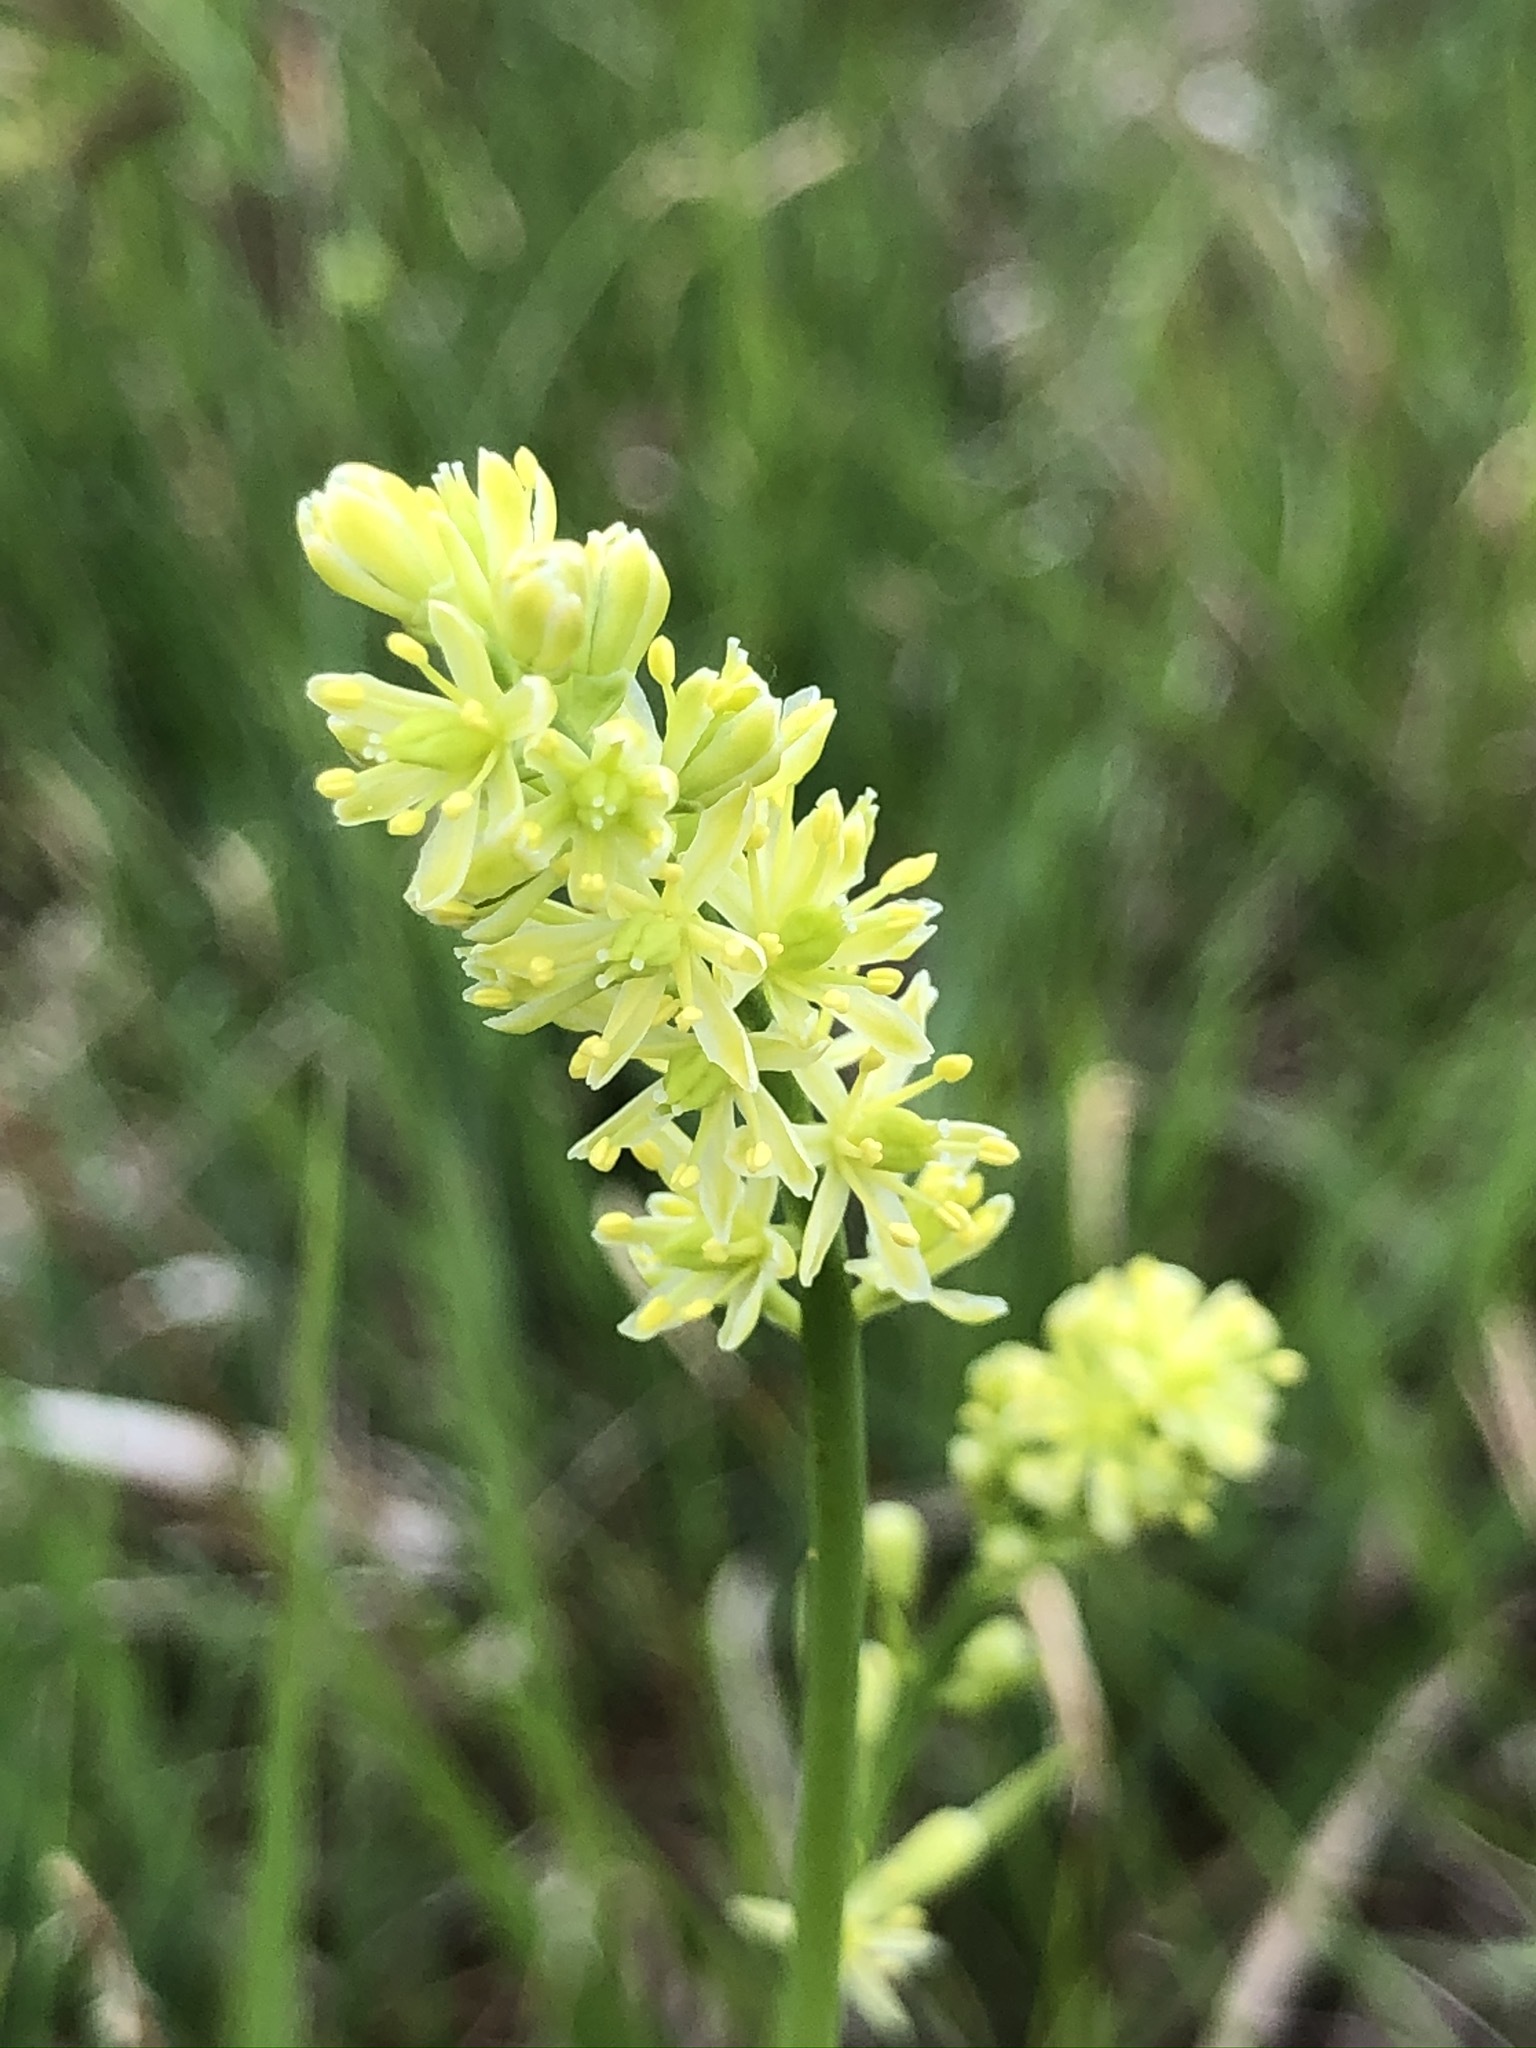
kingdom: Plantae
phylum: Tracheophyta
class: Liliopsida
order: Alismatales
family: Tofieldiaceae
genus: Tofieldia
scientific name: Tofieldia calyculata
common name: German-asphodel
